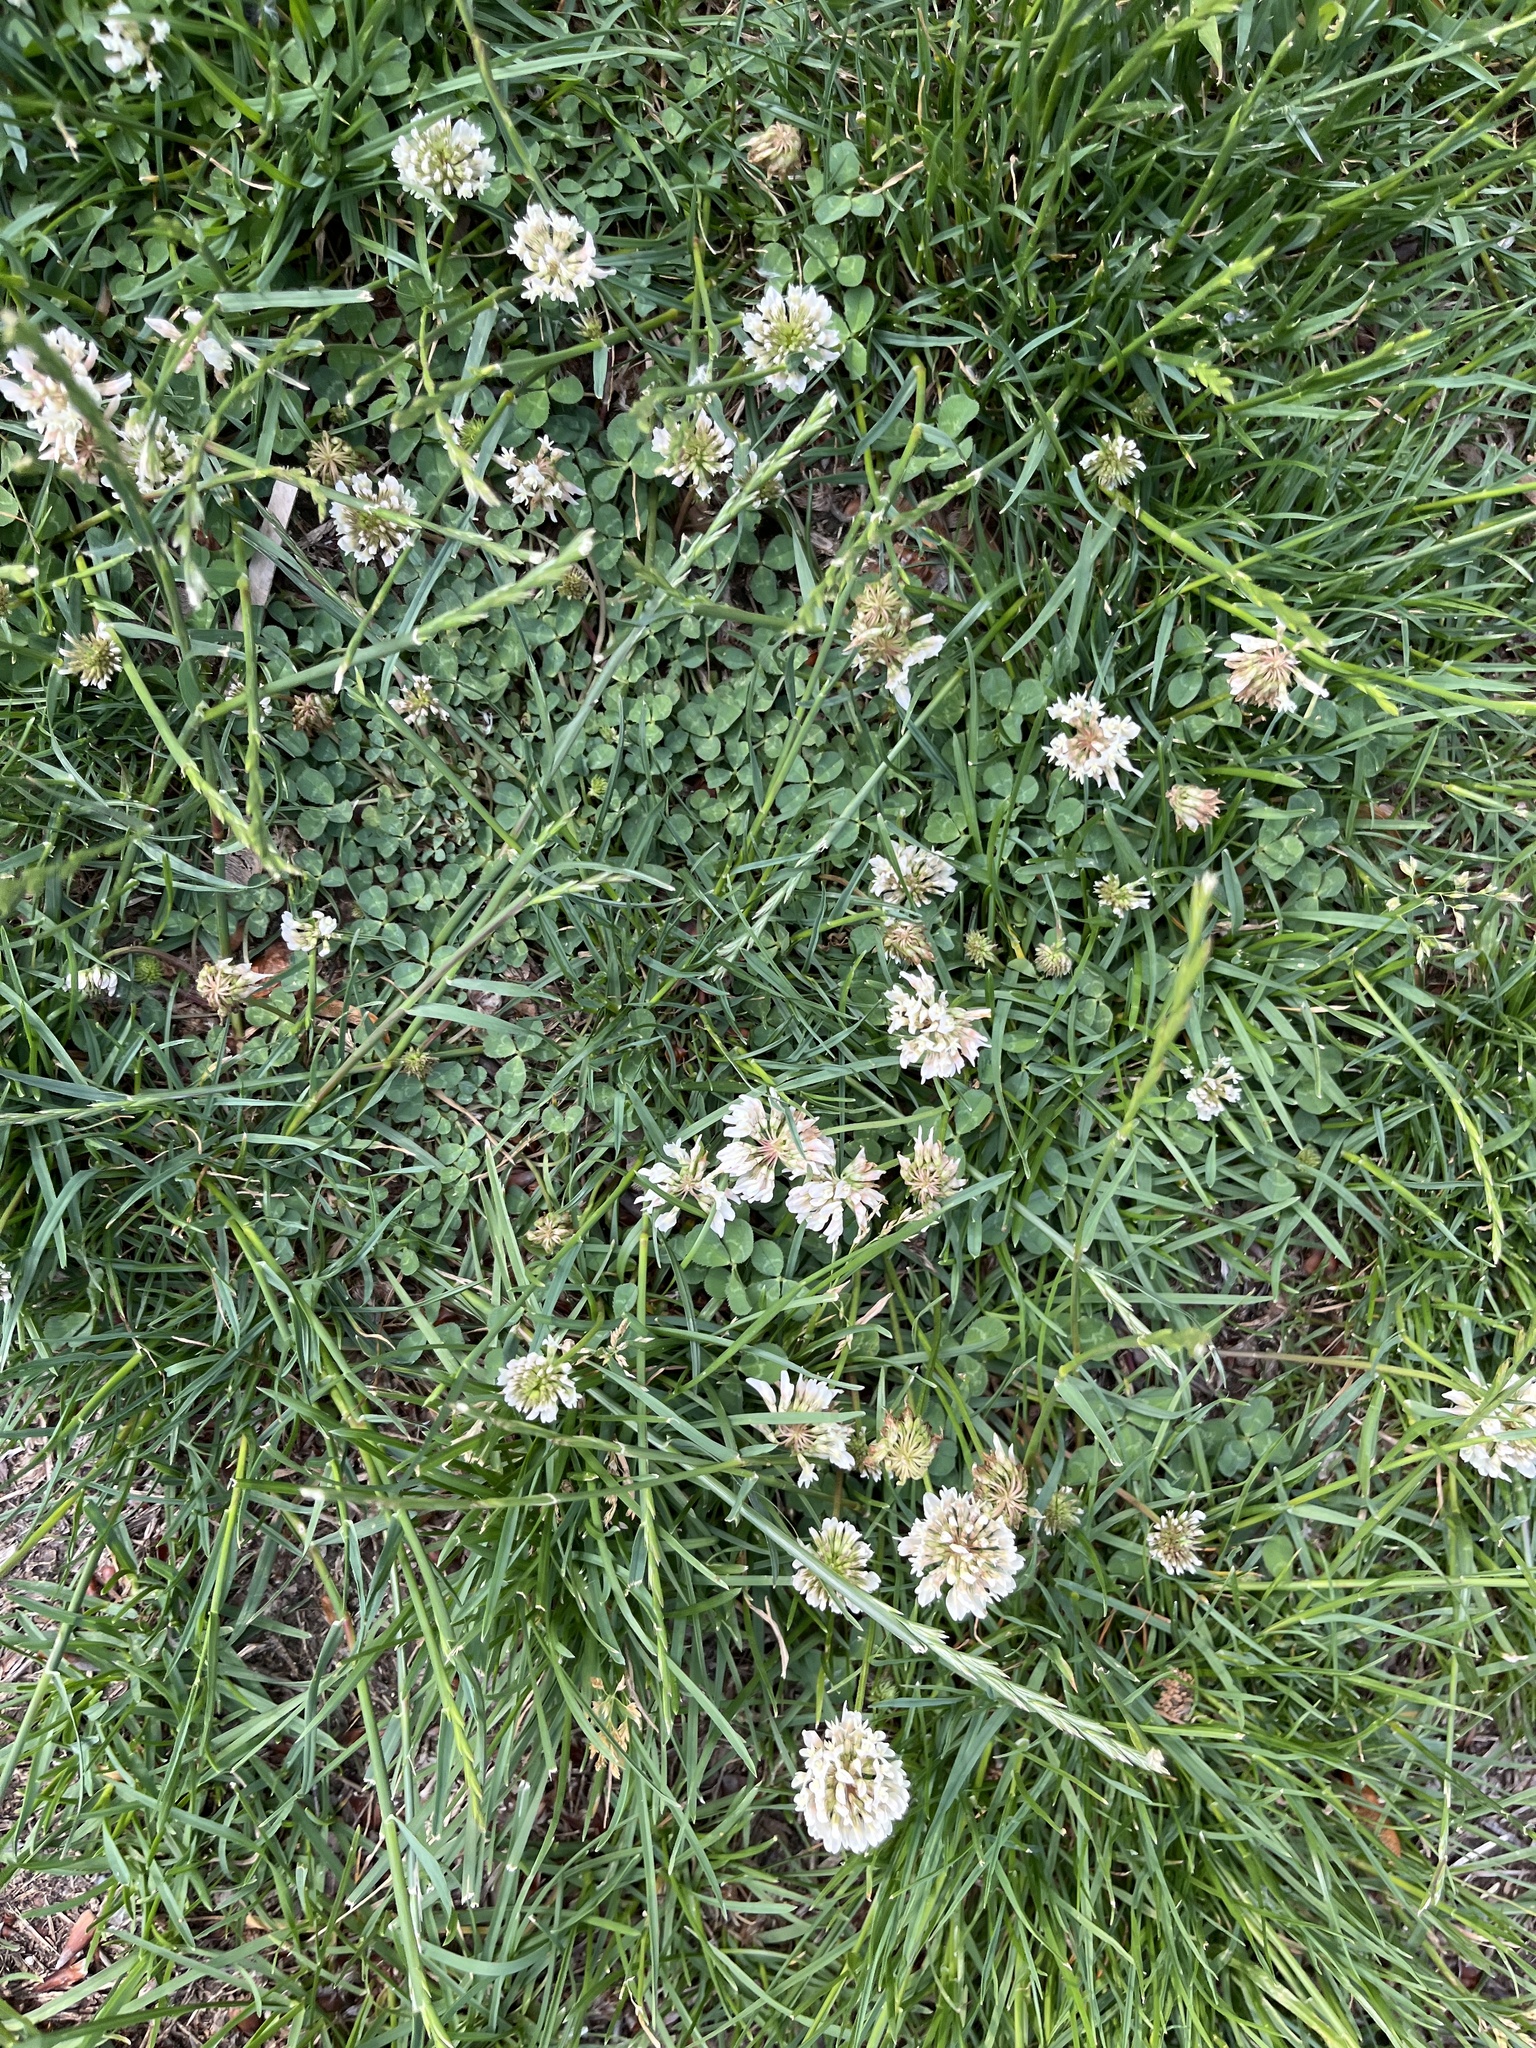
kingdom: Plantae
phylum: Tracheophyta
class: Magnoliopsida
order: Fabales
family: Fabaceae
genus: Trifolium
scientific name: Trifolium repens
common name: White clover
